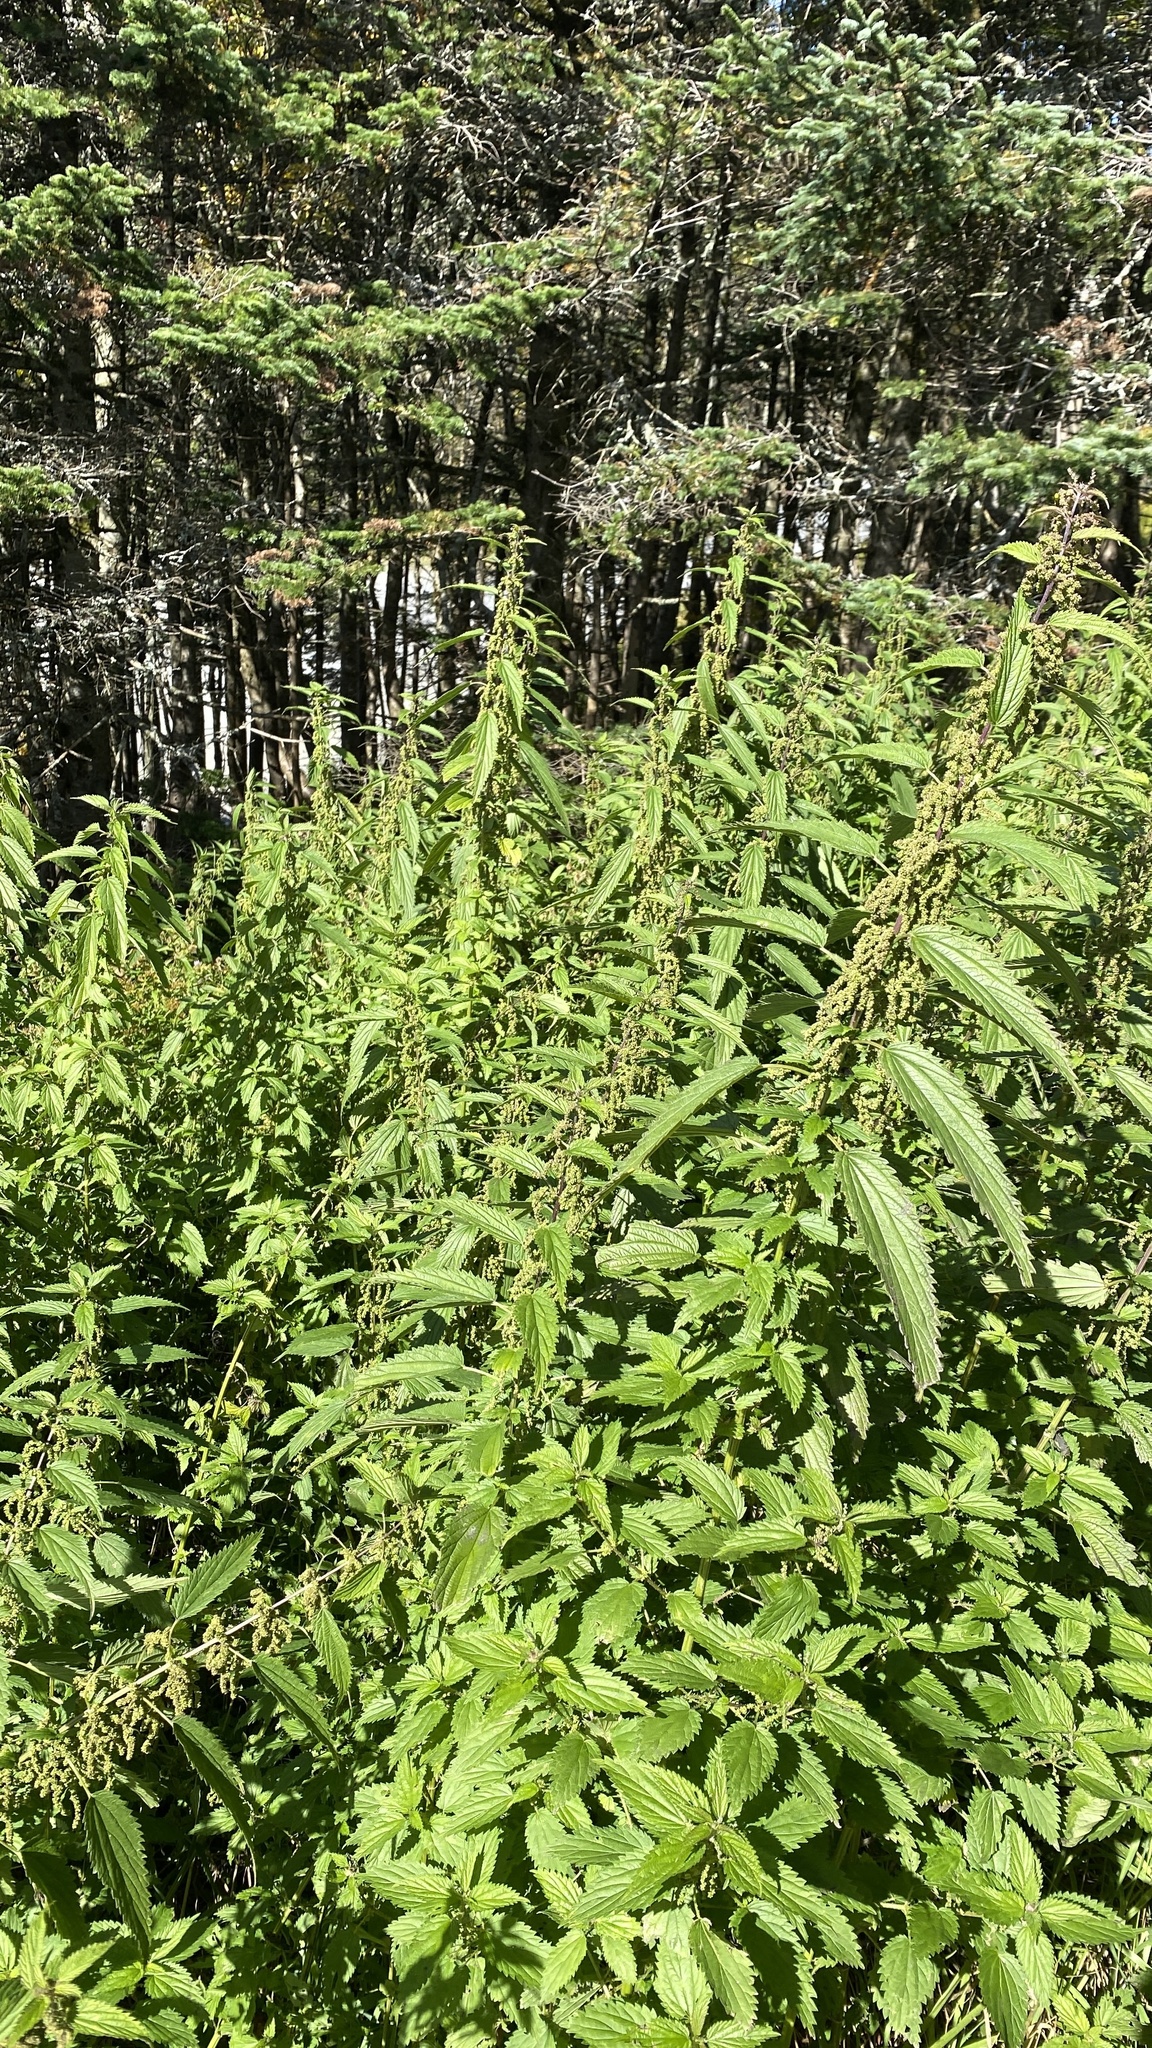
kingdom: Plantae
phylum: Tracheophyta
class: Magnoliopsida
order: Rosales
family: Urticaceae
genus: Urtica
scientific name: Urtica dioica
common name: Common nettle
